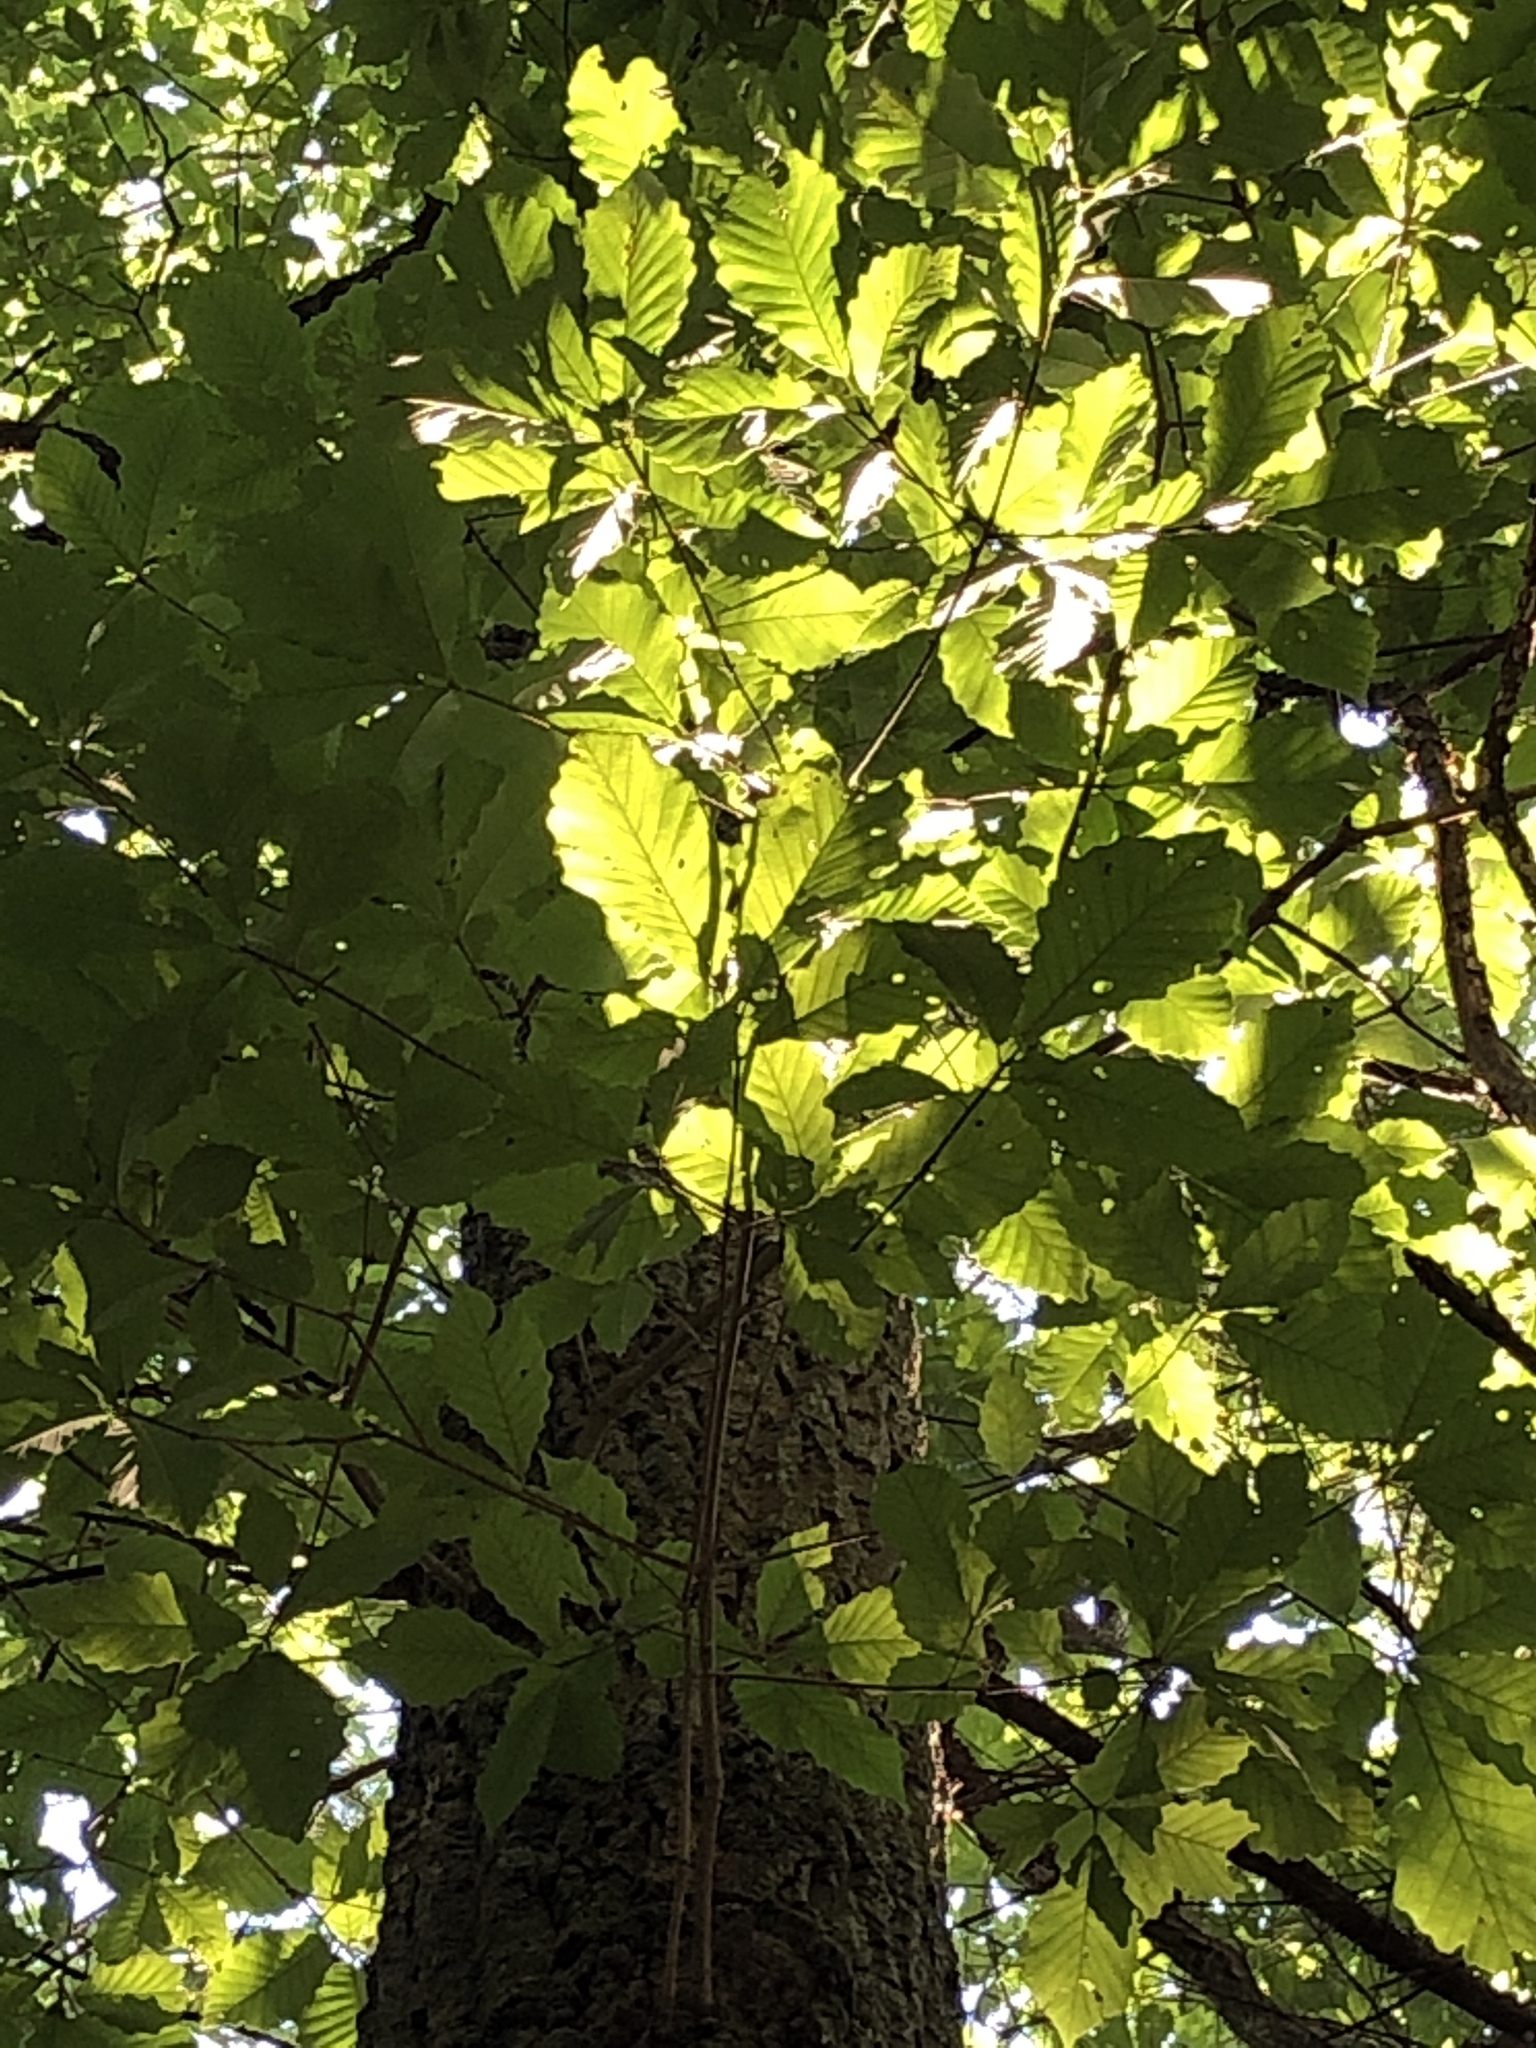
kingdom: Plantae
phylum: Tracheophyta
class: Magnoliopsida
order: Fagales
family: Fagaceae
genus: Quercus
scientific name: Quercus montana
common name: Chestnut oak
